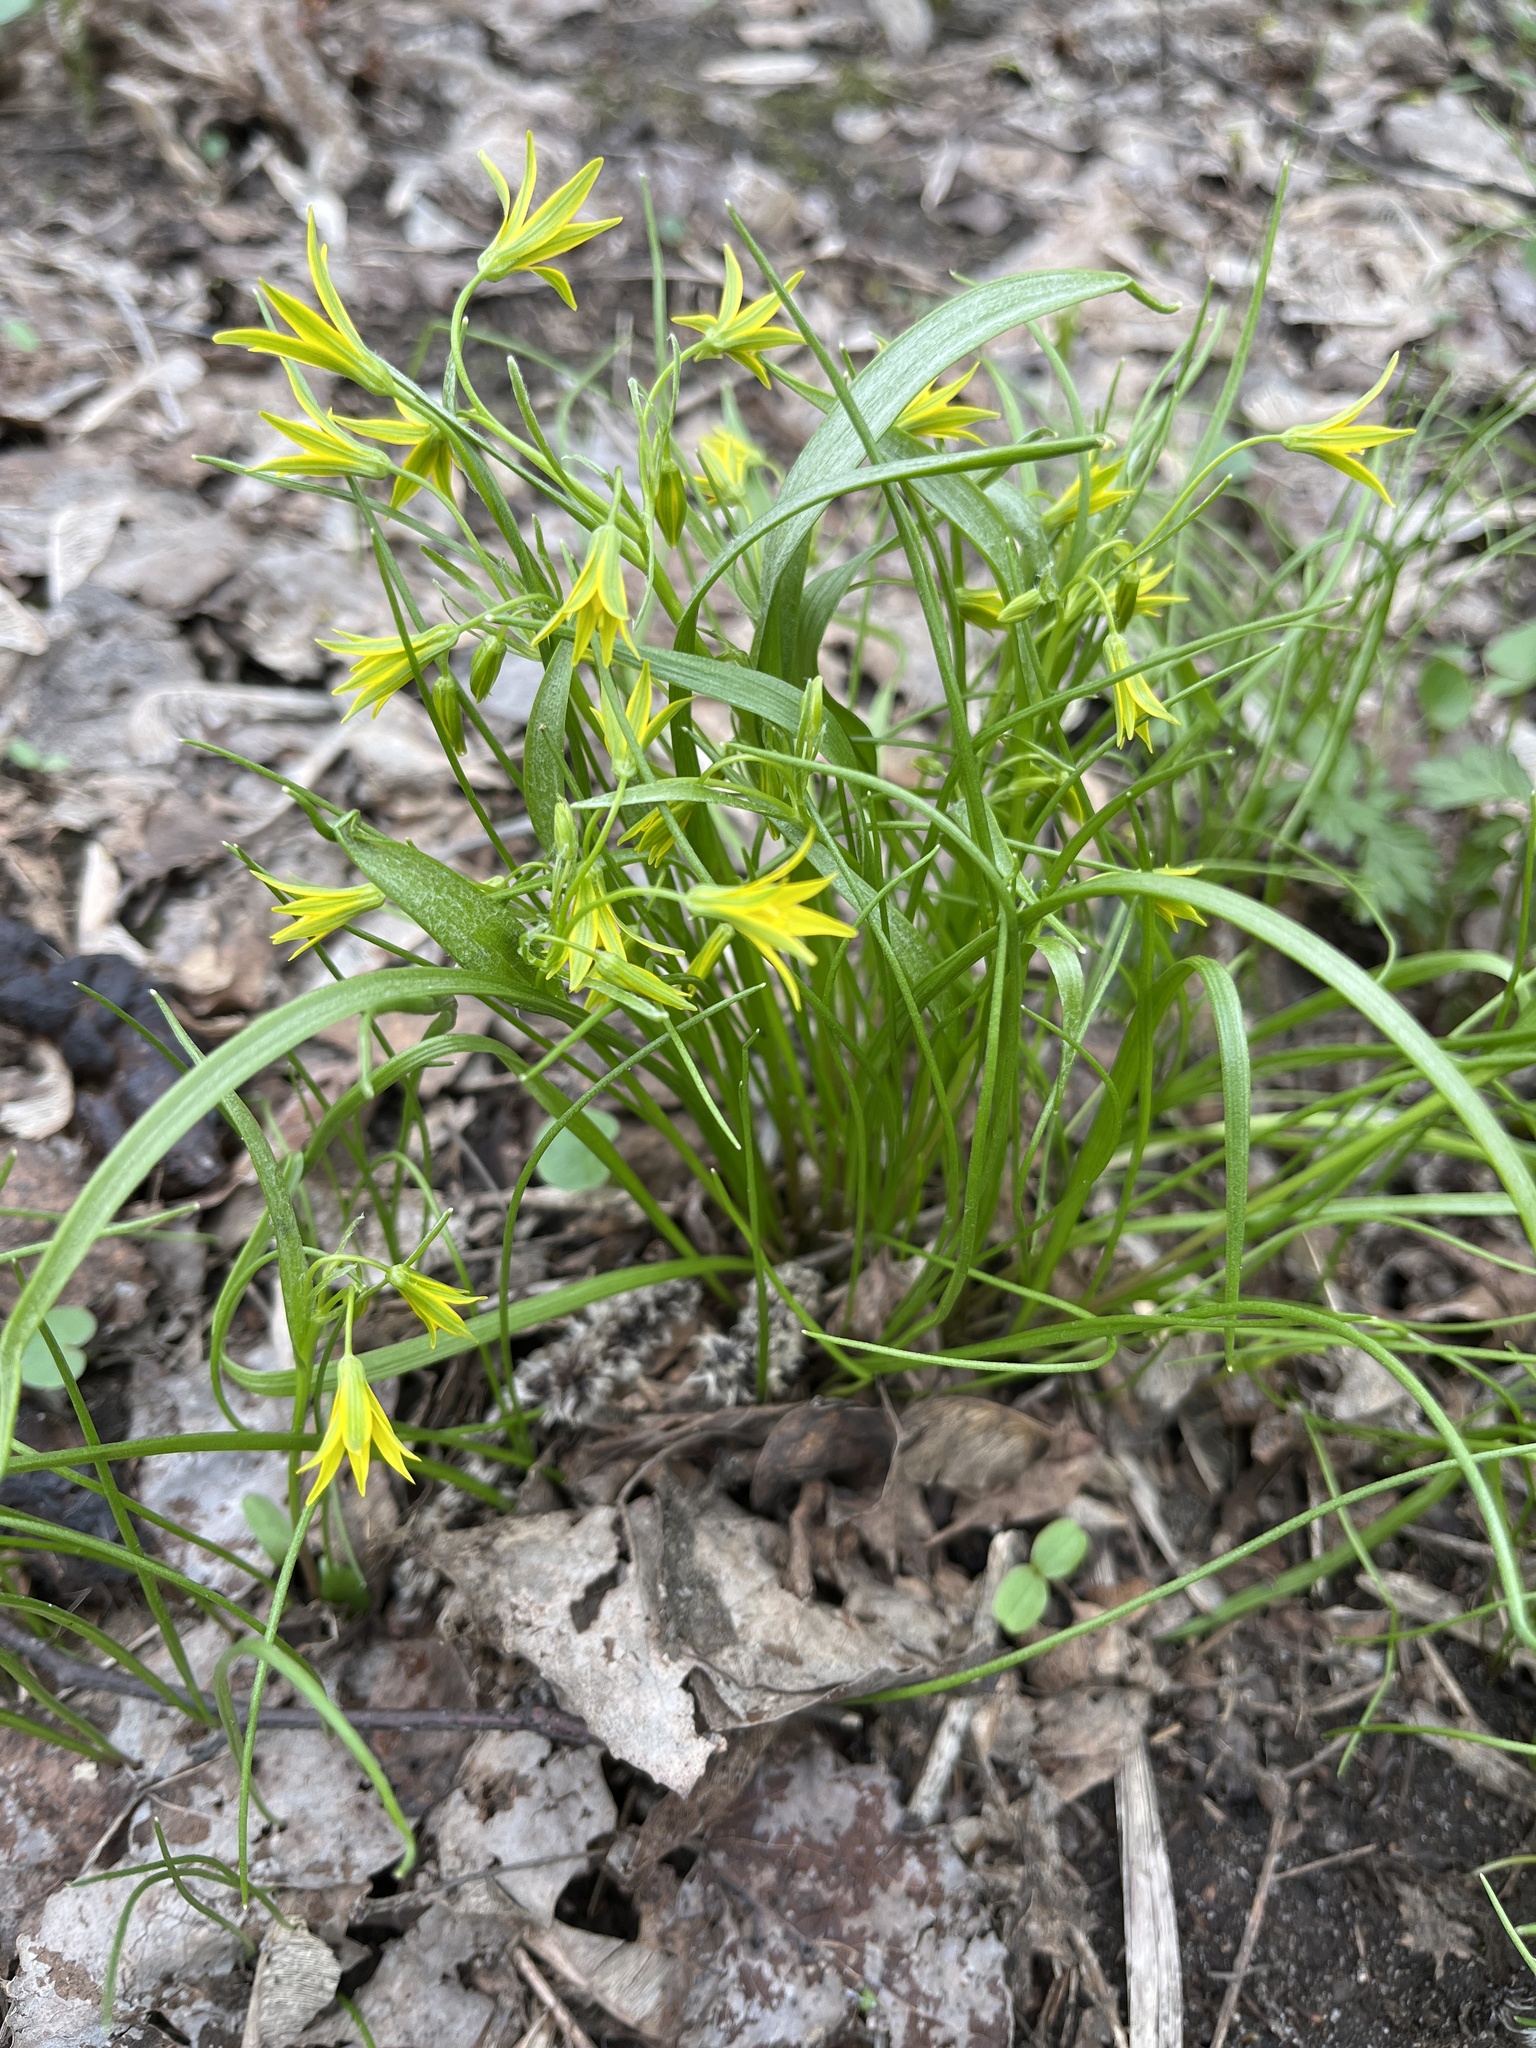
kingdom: Plantae
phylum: Tracheophyta
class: Liliopsida
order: Liliales
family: Liliaceae
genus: Gagea
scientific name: Gagea minima
